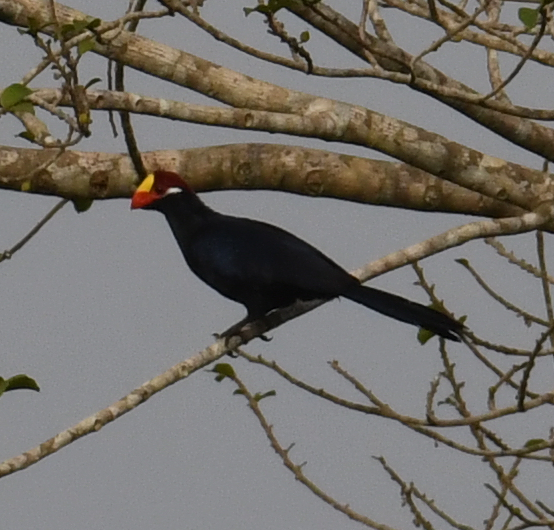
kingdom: Animalia
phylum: Chordata
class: Aves
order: Musophagiformes
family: Musophagidae
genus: Musophaga
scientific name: Musophaga violacea
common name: Violet turaco
